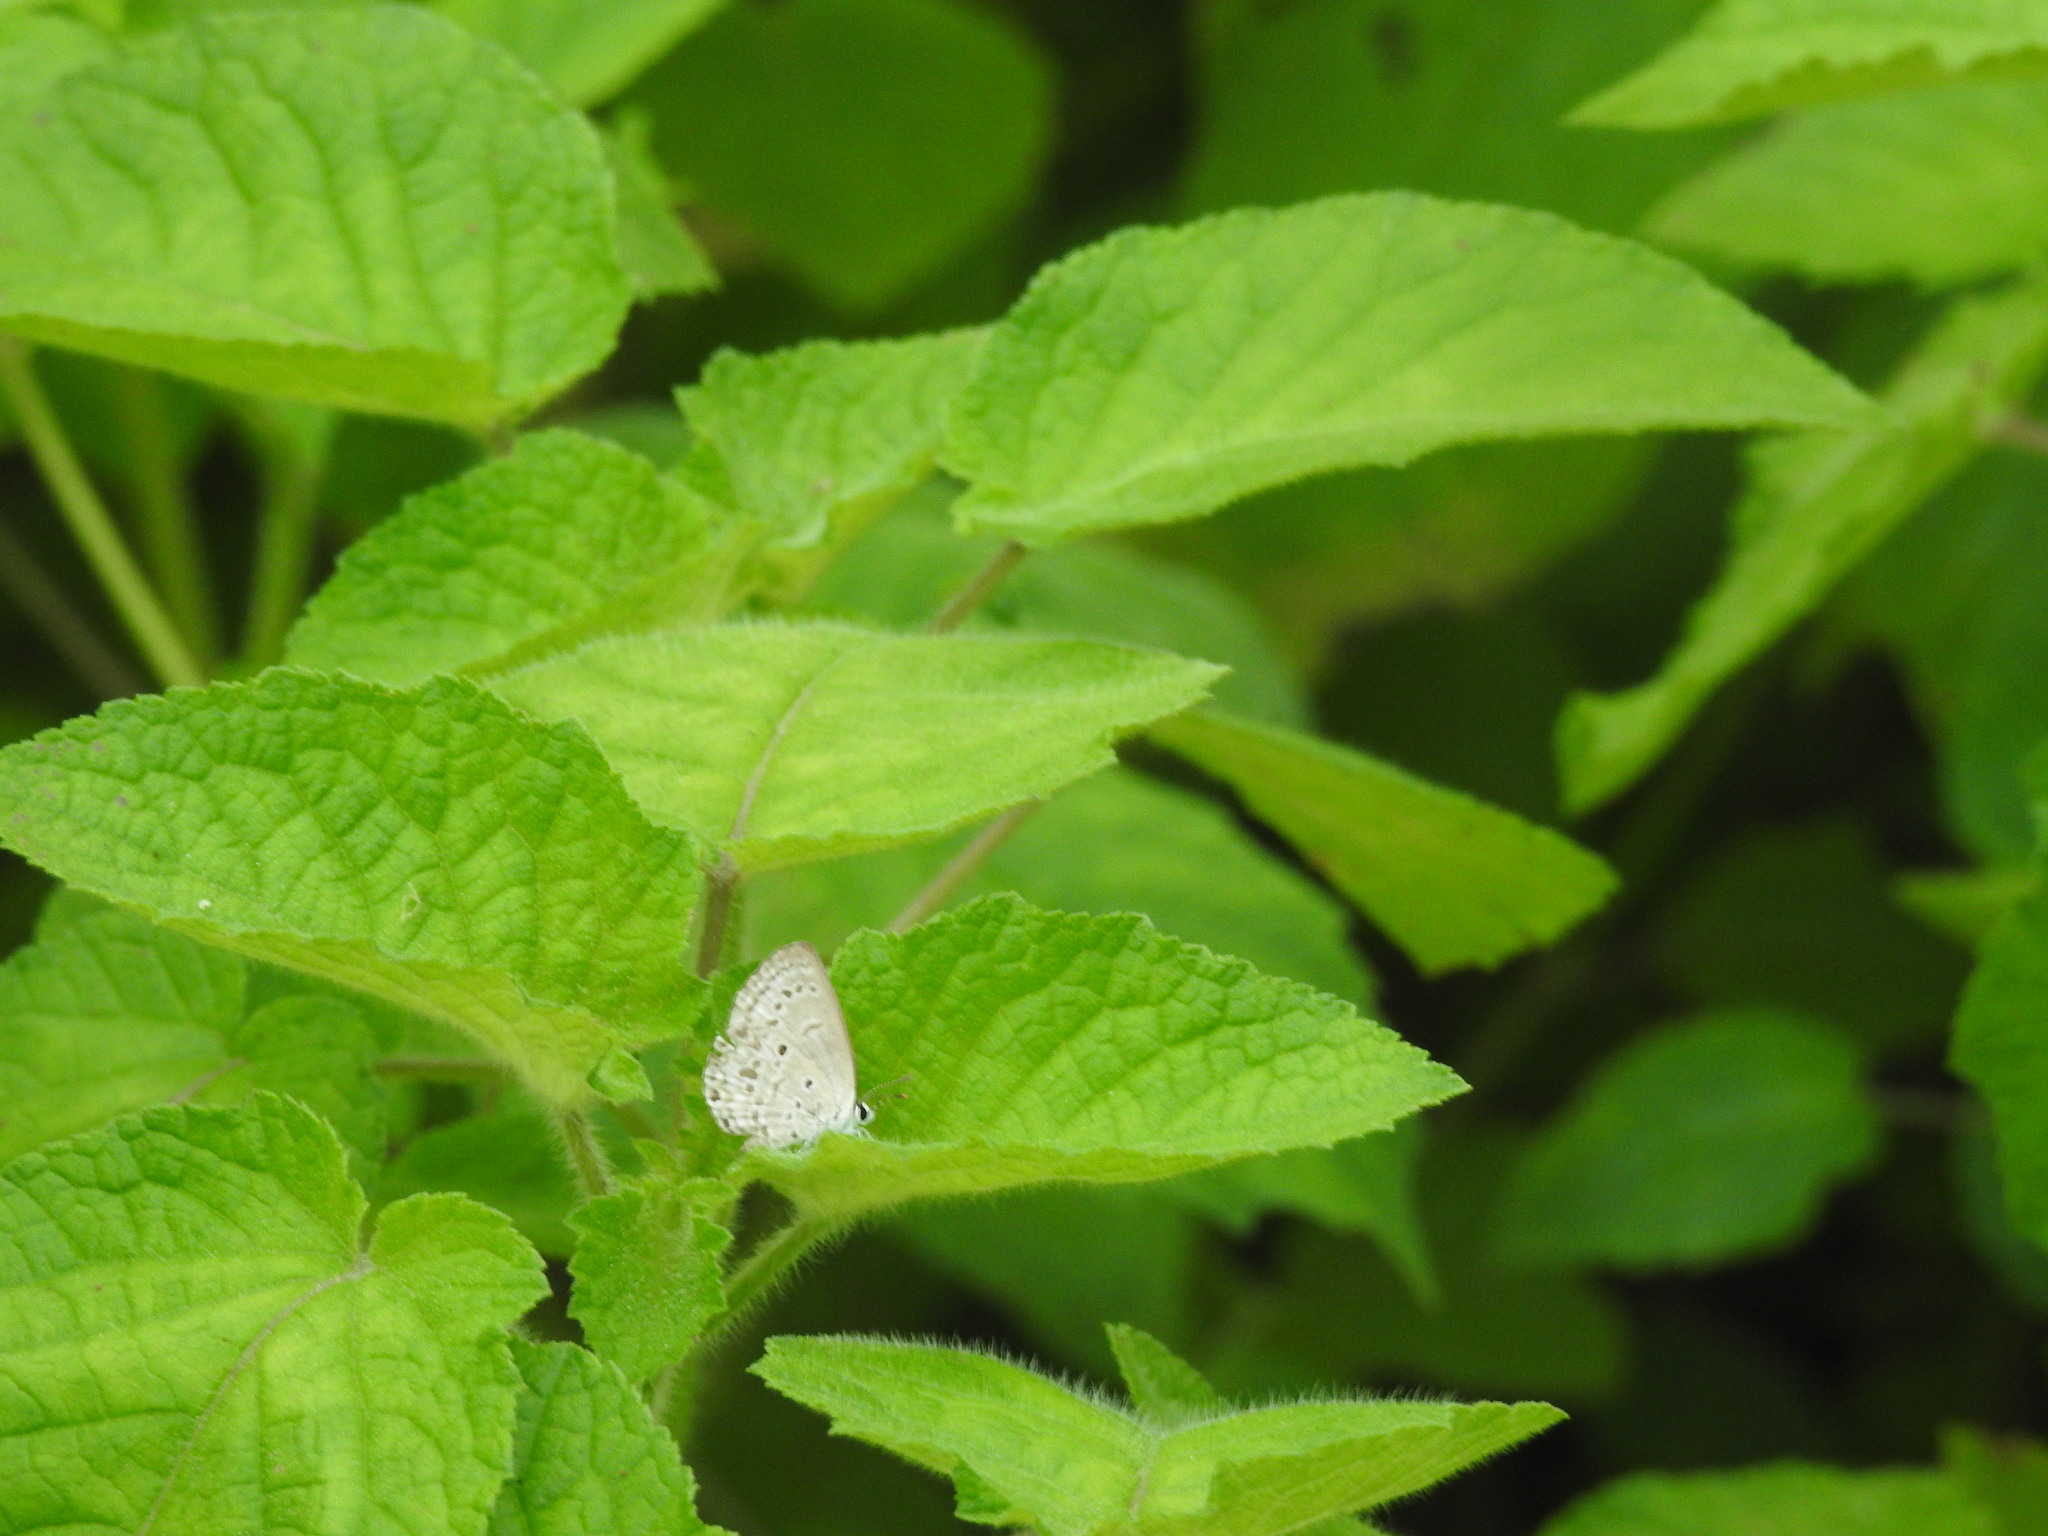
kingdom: Animalia
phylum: Arthropoda
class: Insecta
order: Lepidoptera
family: Lycaenidae
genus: Chilades
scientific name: Chilades laius
